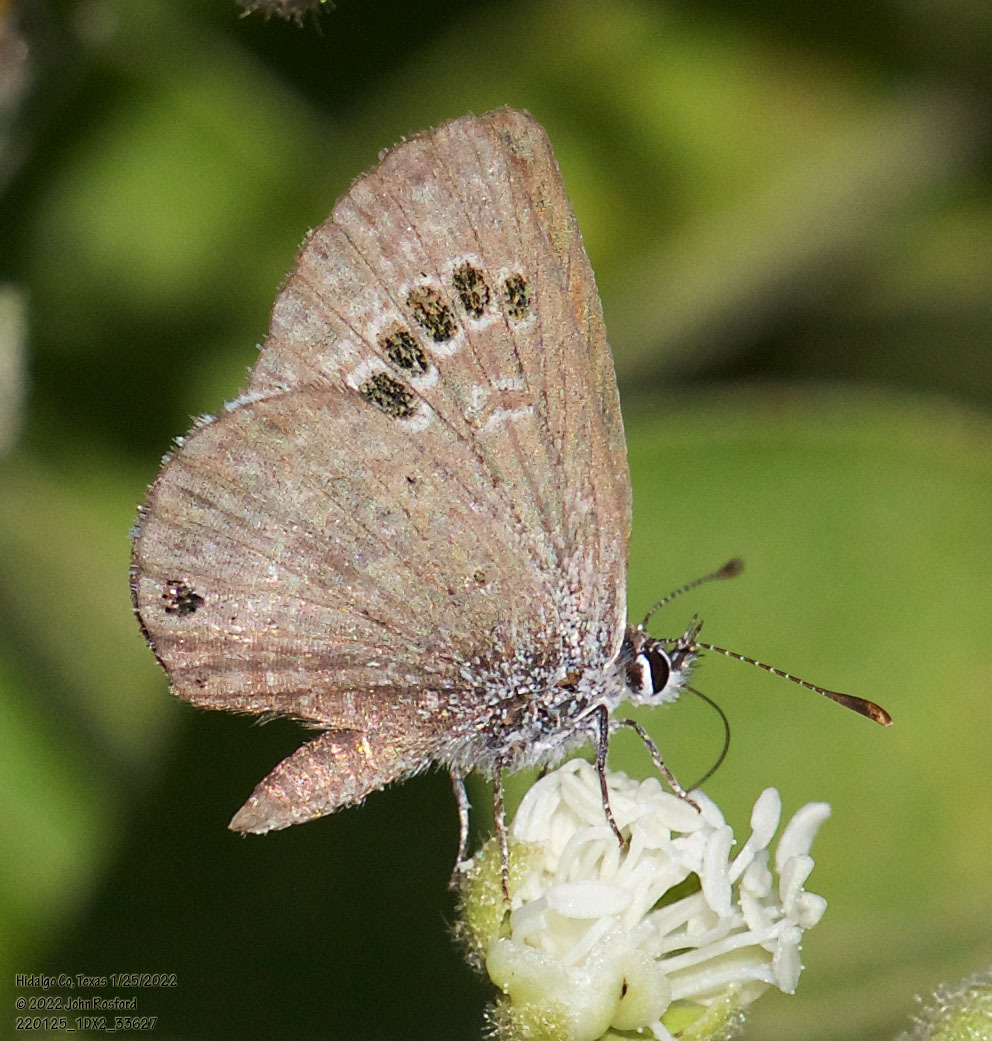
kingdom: Animalia
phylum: Arthropoda
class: Insecta
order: Lepidoptera
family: Lycaenidae
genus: Echinargus
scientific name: Echinargus isola
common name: Reakirt's blue
